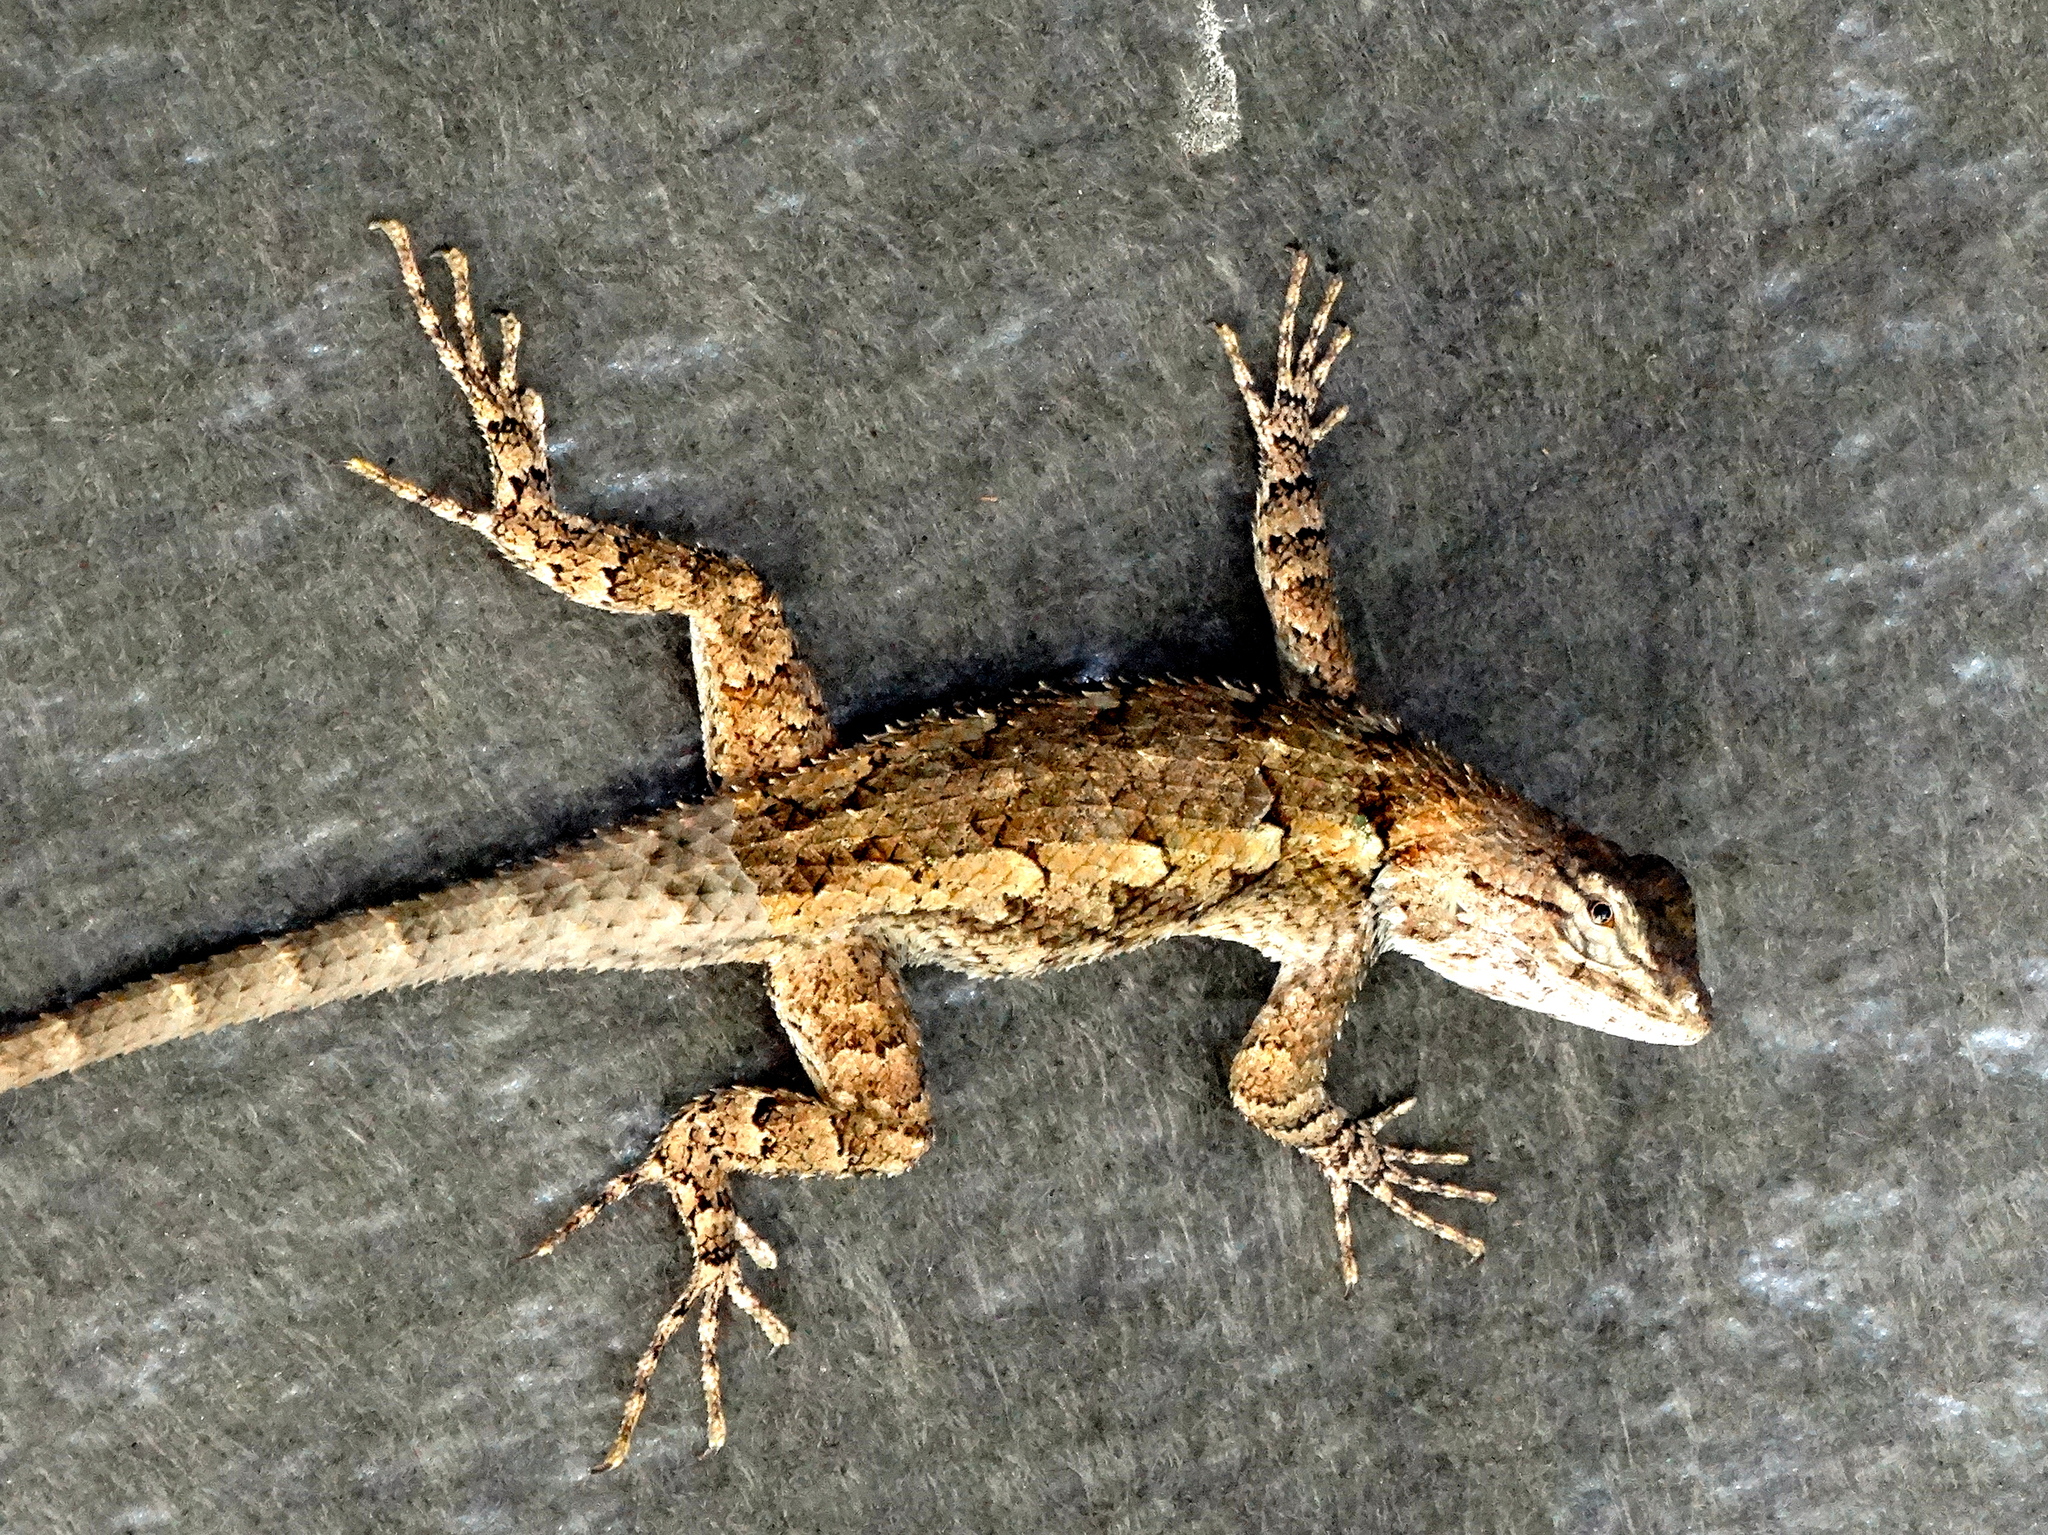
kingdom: Animalia
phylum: Chordata
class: Squamata
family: Phrynosomatidae
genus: Sceloporus
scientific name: Sceloporus clarkii
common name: Clark's spiny lizard
